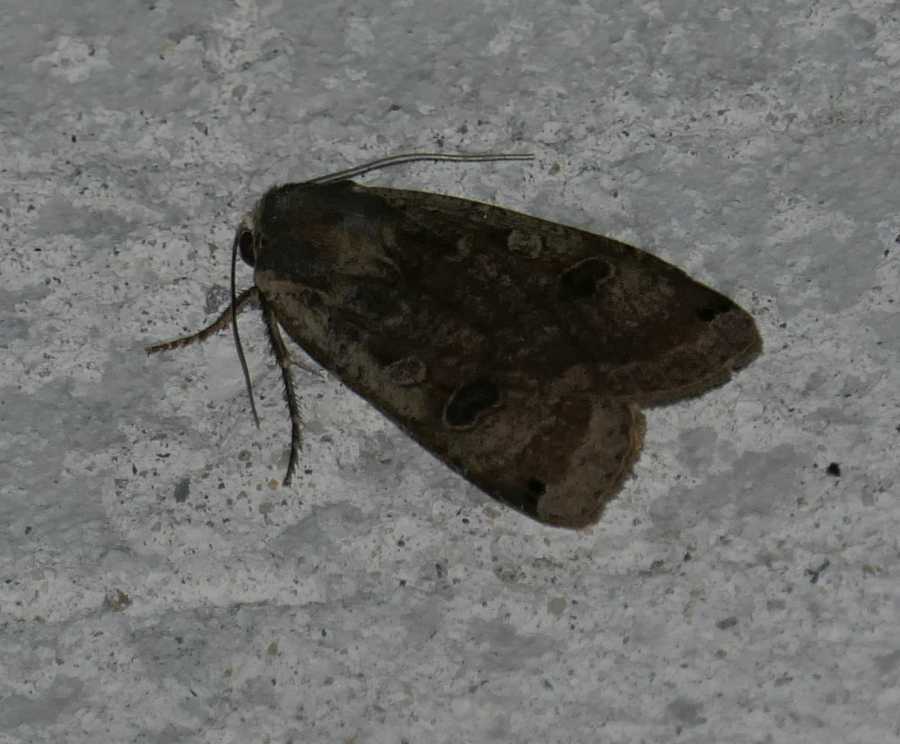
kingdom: Animalia
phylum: Arthropoda
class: Insecta
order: Lepidoptera
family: Noctuidae
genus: Noctua
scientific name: Noctua pronuba
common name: Large yellow underwing
